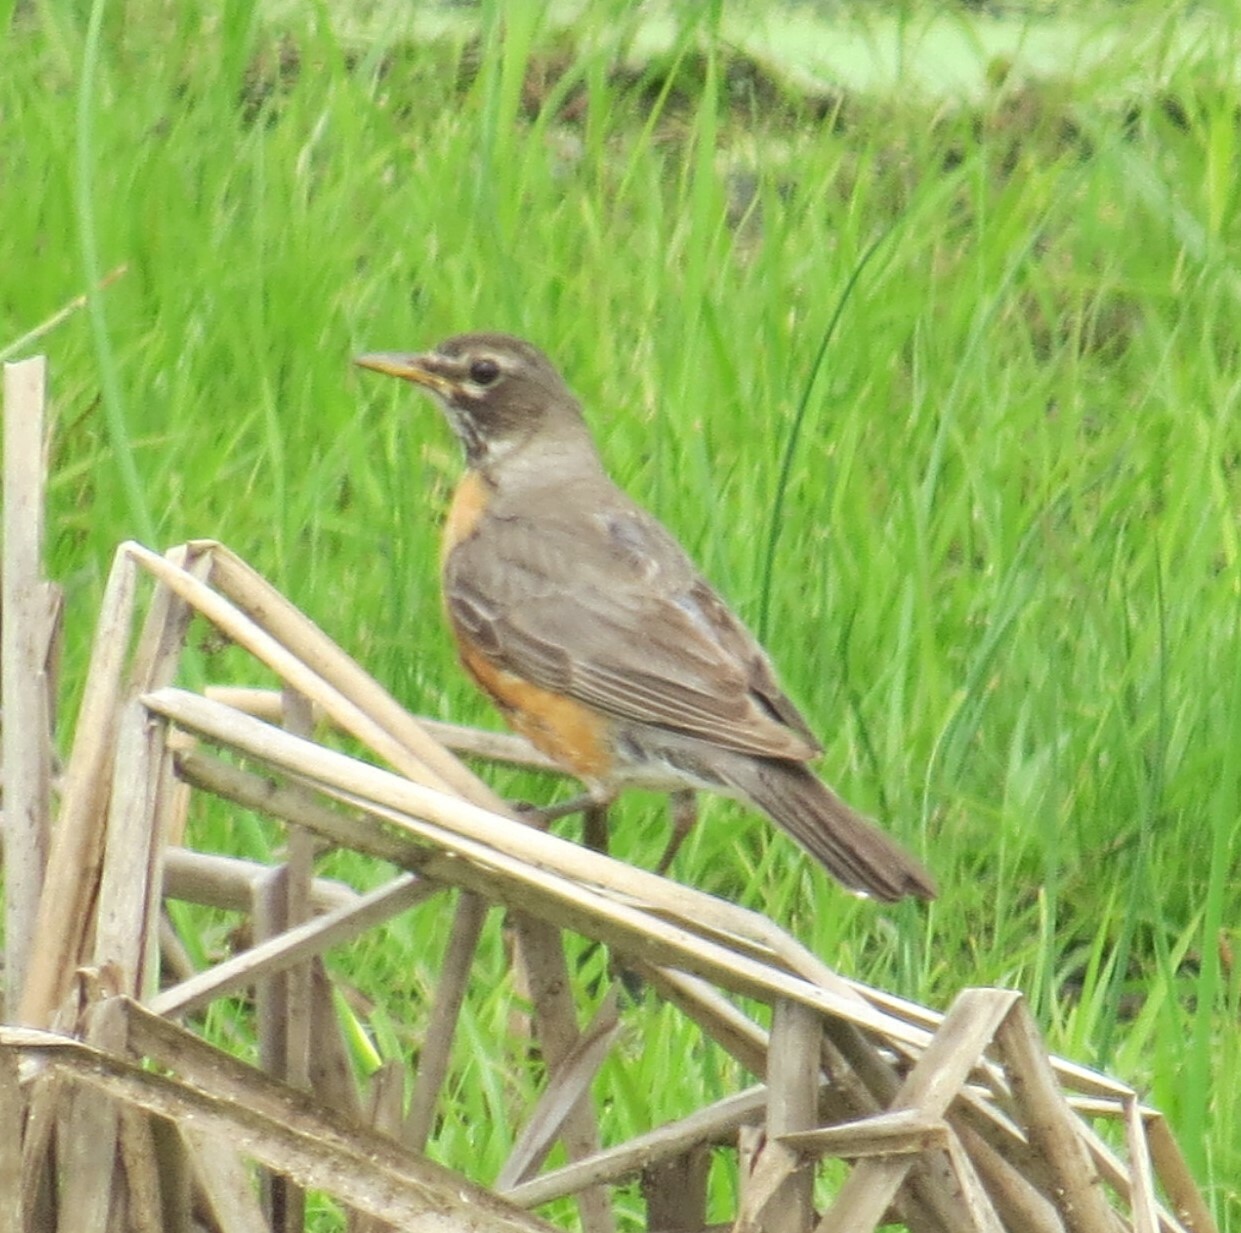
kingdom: Animalia
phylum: Chordata
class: Aves
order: Passeriformes
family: Turdidae
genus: Turdus
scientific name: Turdus migratorius
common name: American robin
